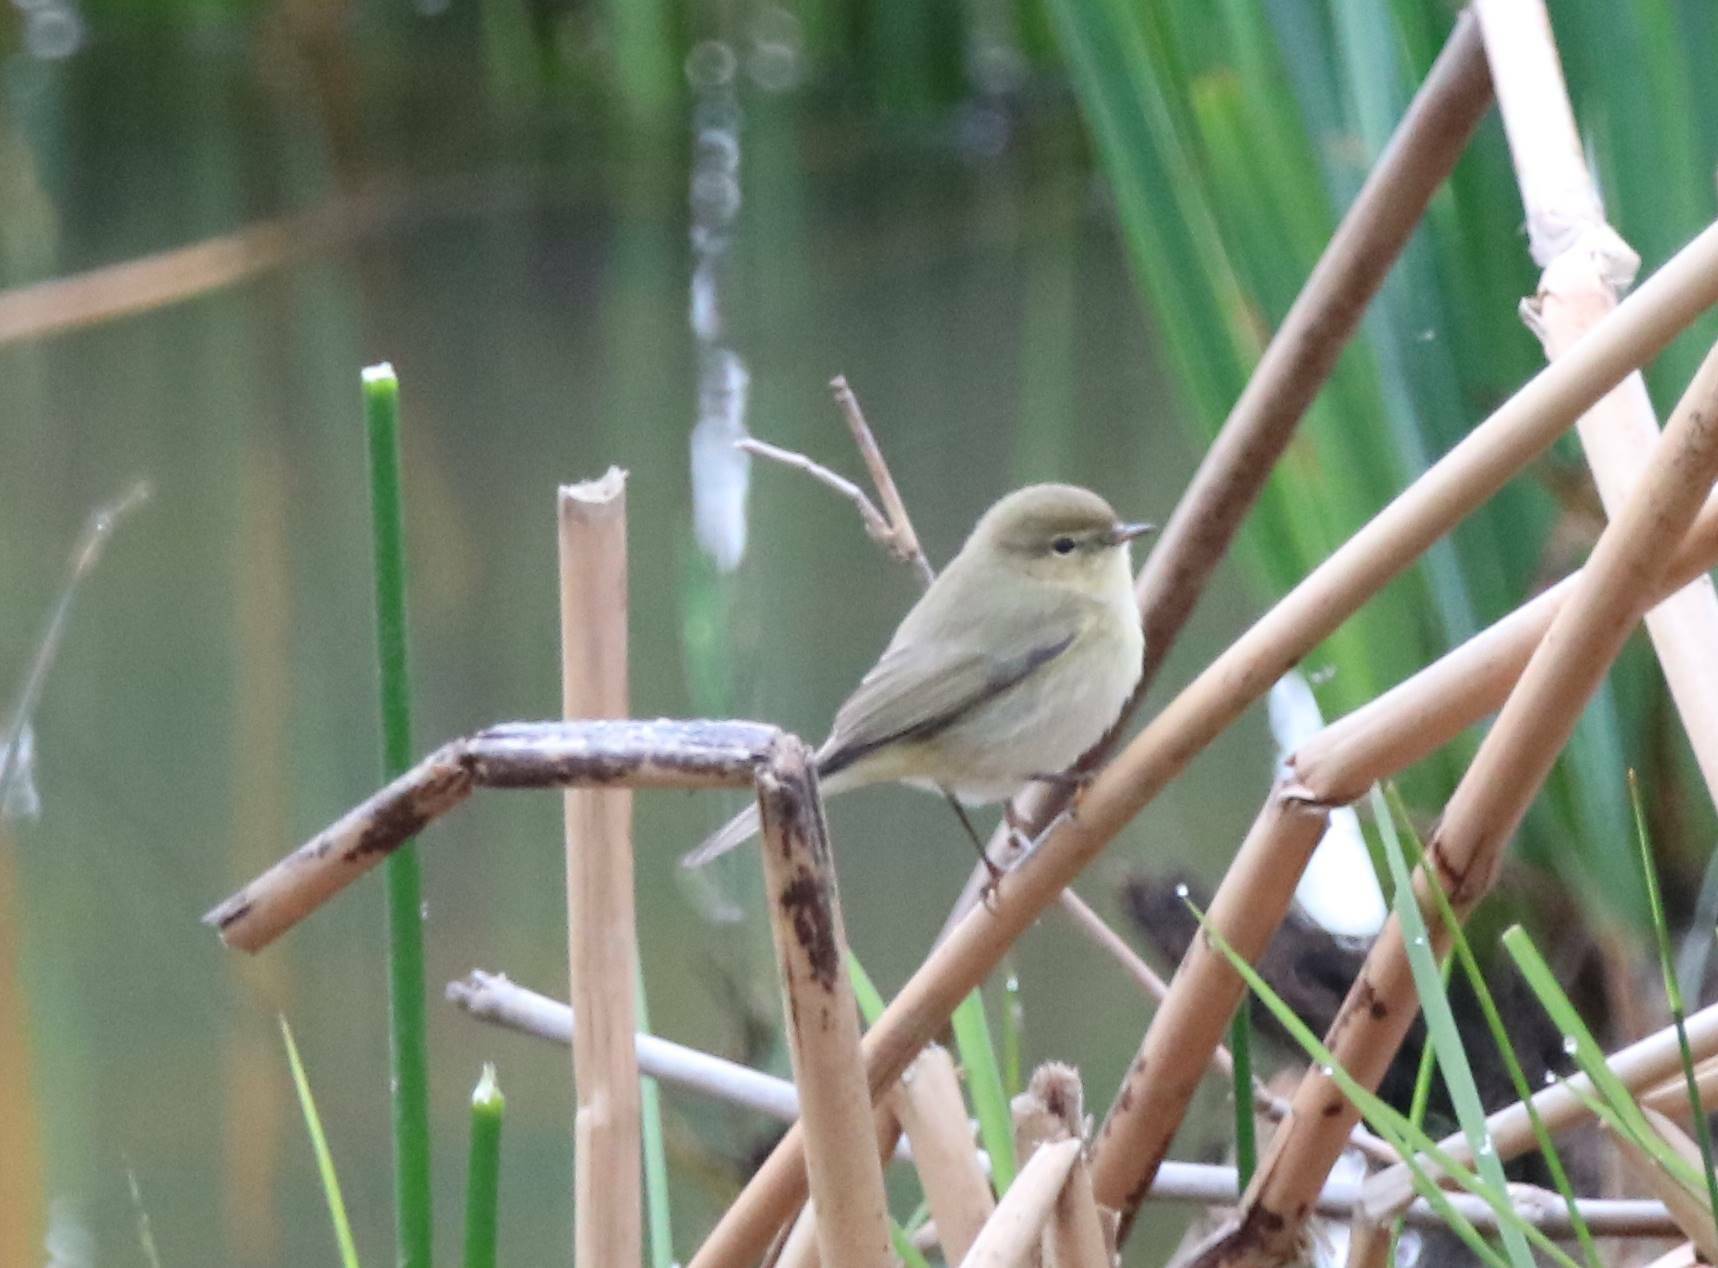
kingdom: Animalia
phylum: Chordata
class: Aves
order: Passeriformes
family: Phylloscopidae
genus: Phylloscopus
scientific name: Phylloscopus collybita
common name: Common chiffchaff
